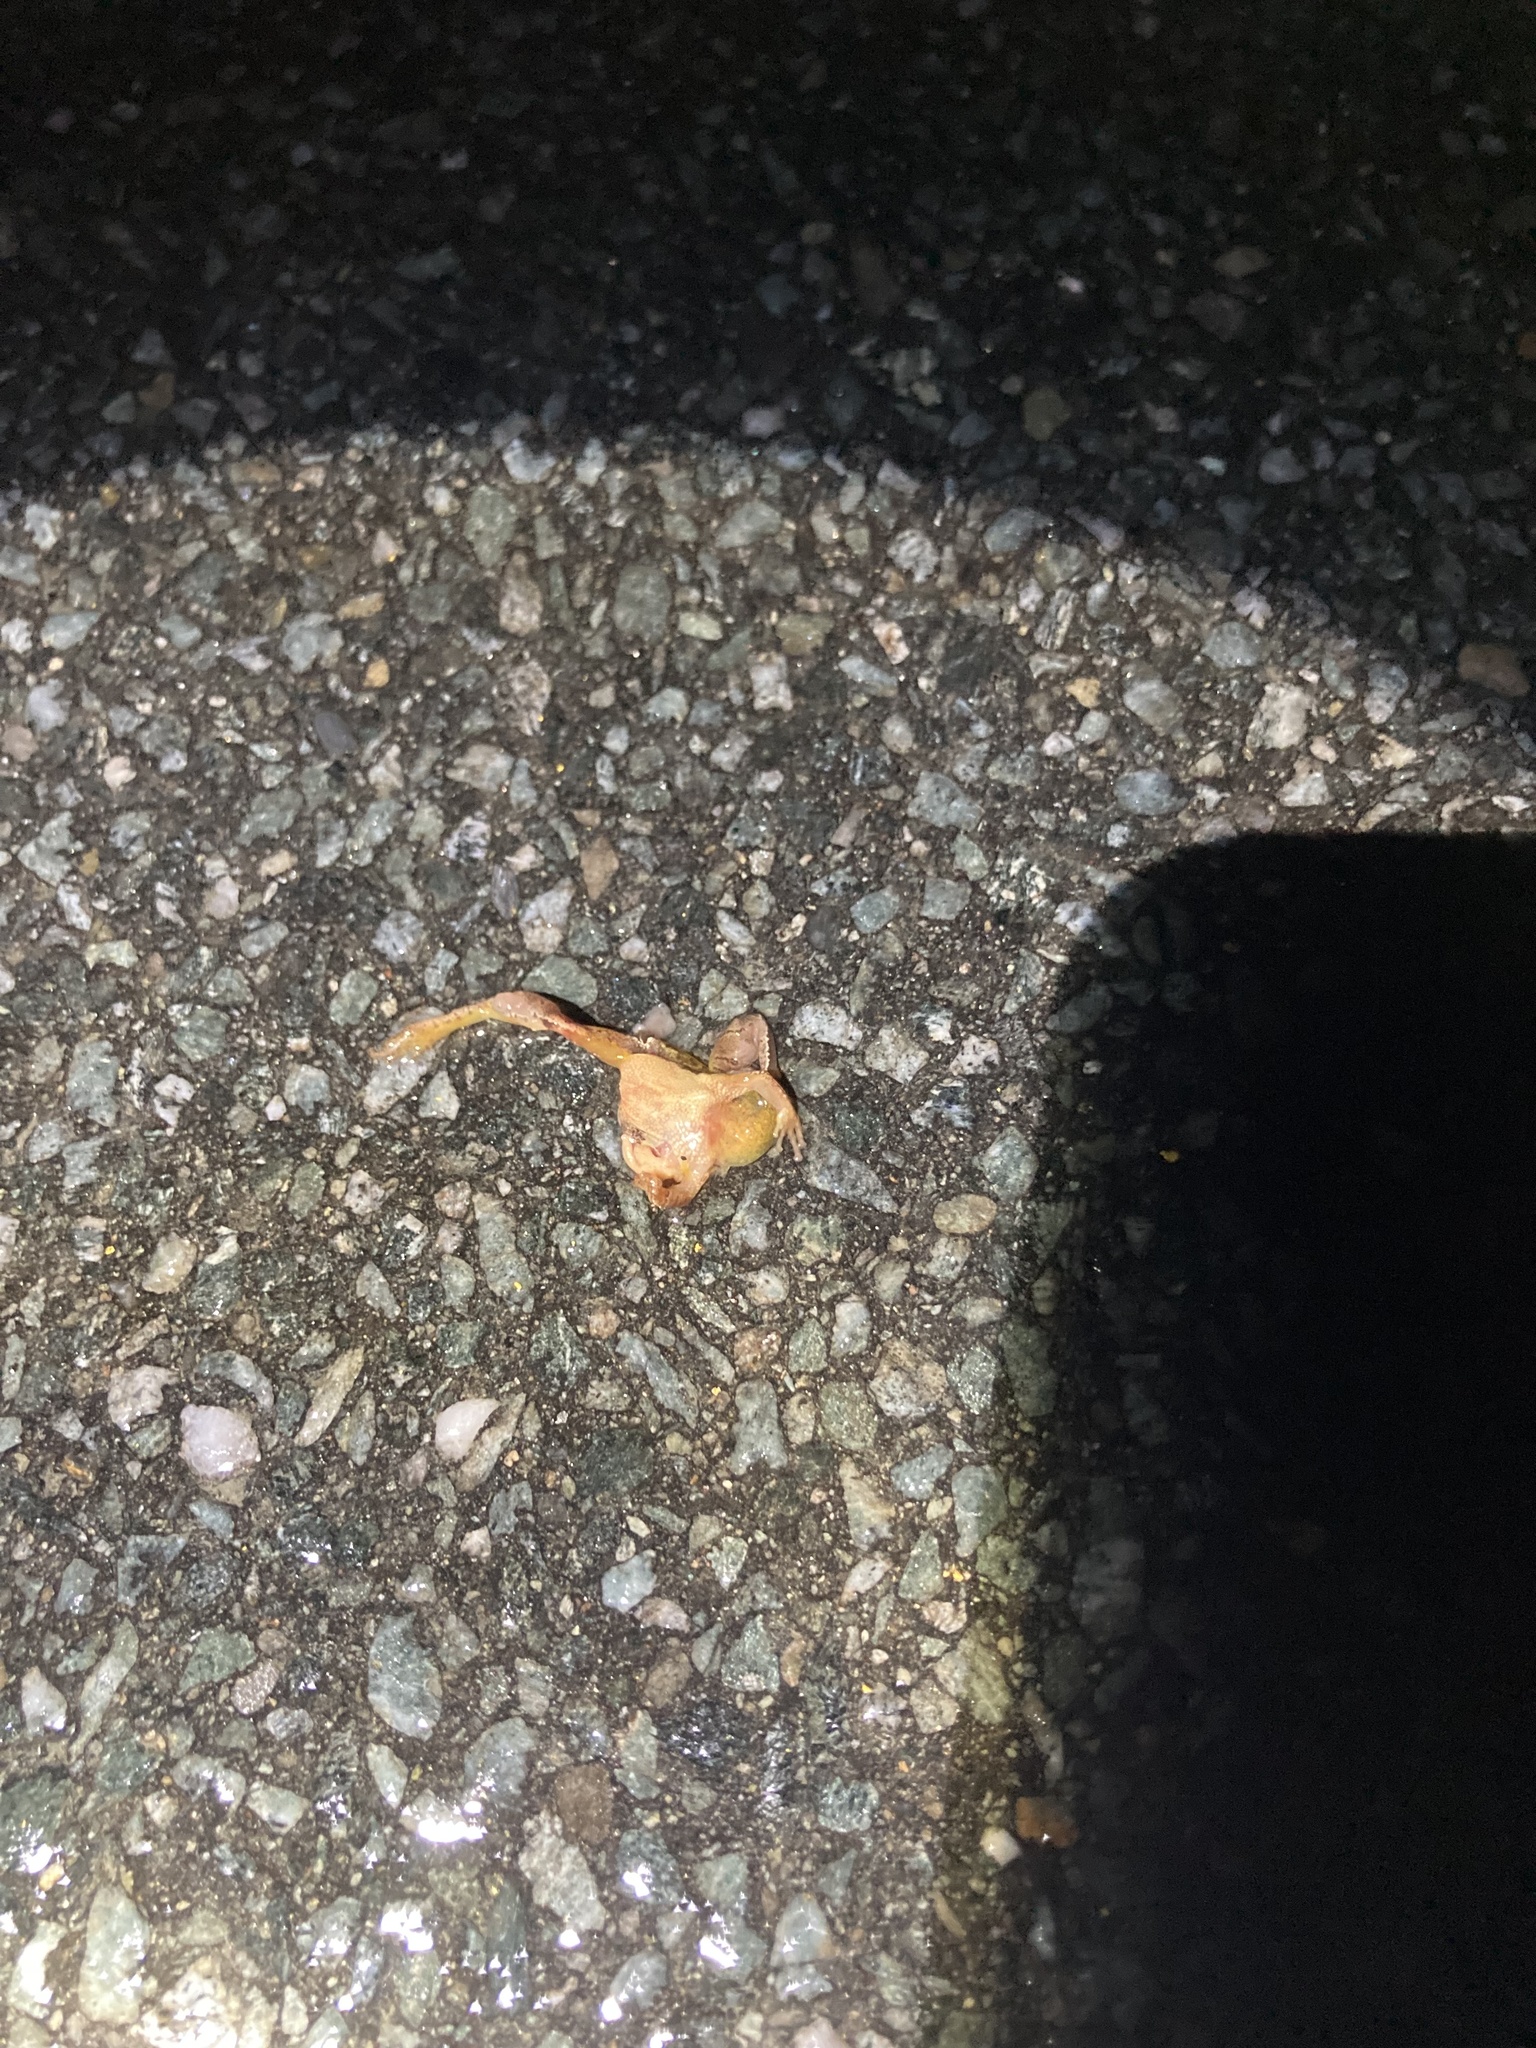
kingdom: Animalia
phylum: Chordata
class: Amphibia
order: Anura
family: Hylidae
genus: Pseudacris
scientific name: Pseudacris crucifer
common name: Spring peeper
